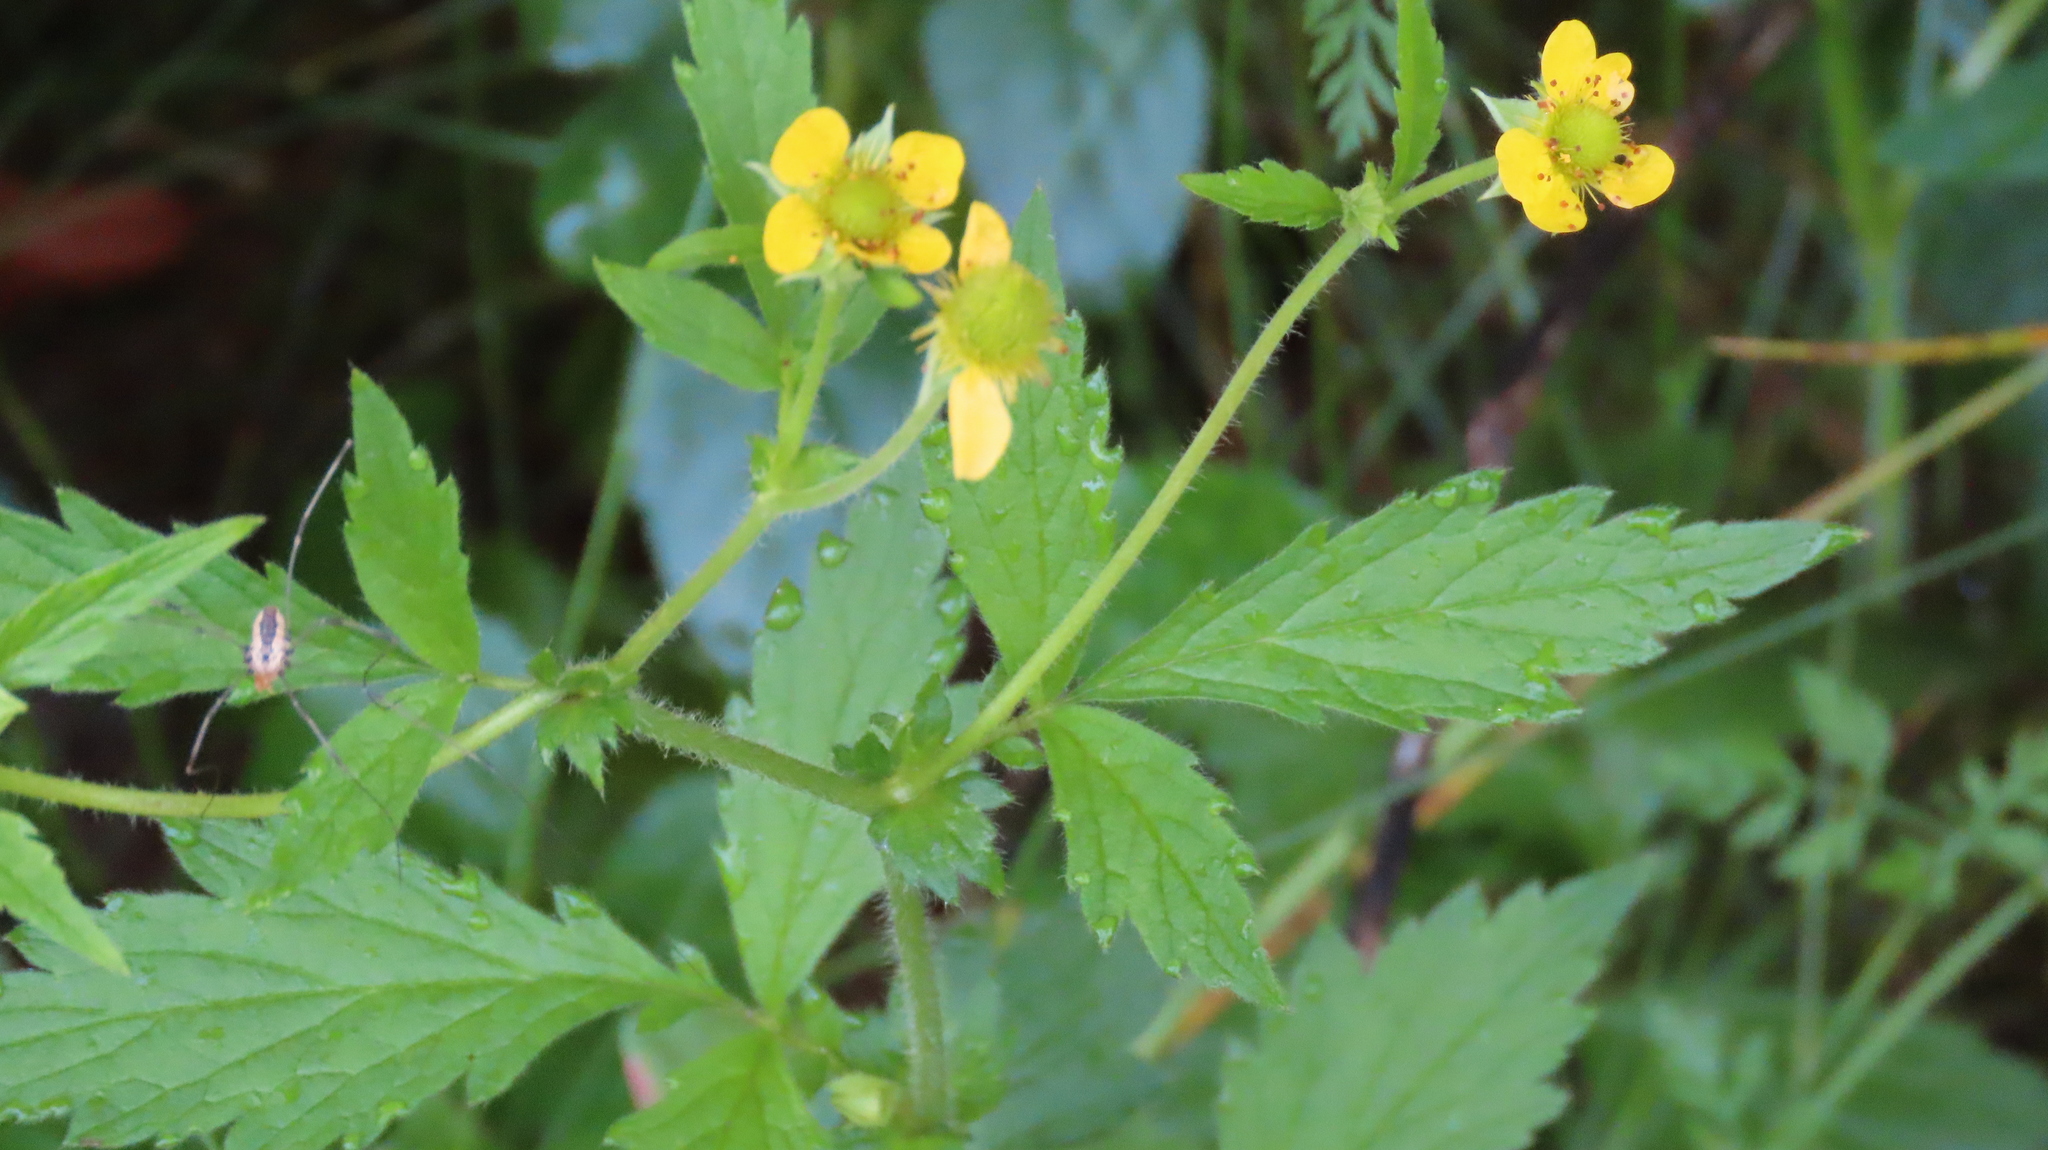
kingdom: Plantae
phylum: Tracheophyta
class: Magnoliopsida
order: Rosales
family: Rosaceae
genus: Geum
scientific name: Geum aleppicum
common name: Yellow avens
